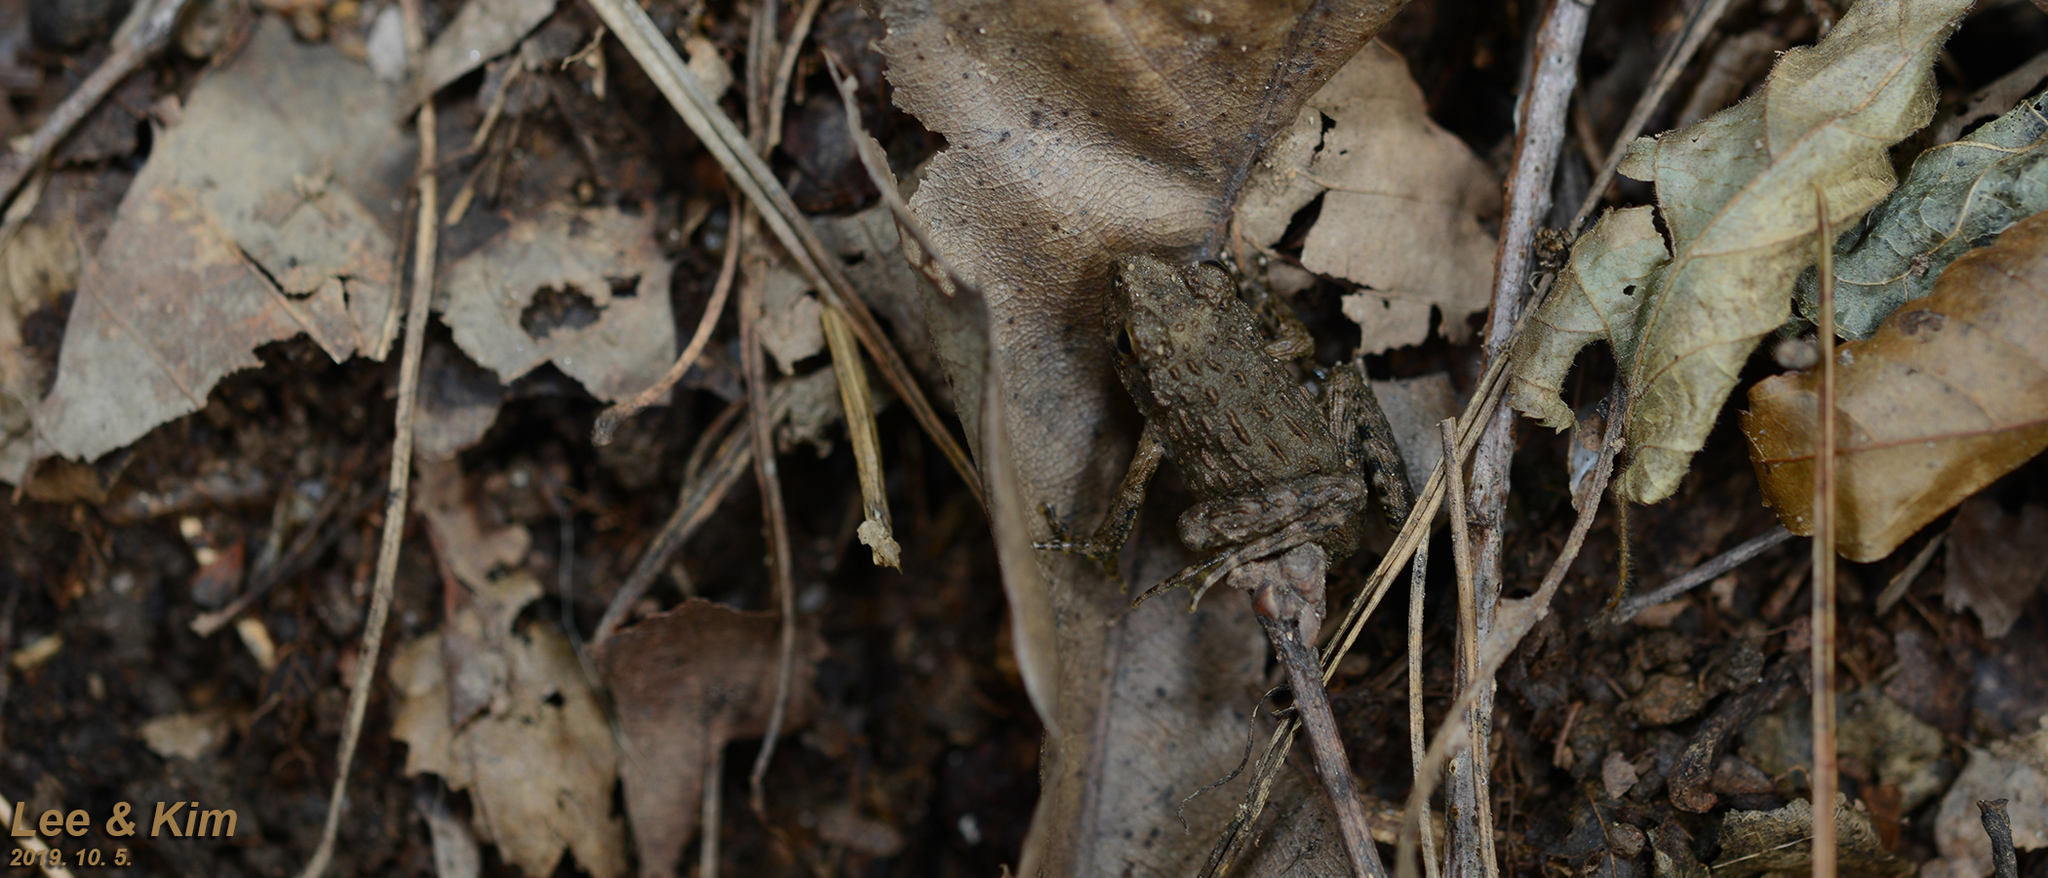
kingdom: Animalia
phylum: Chordata
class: Amphibia
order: Anura
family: Ranidae
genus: Glandirana
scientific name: Glandirana emeljanovi
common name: Northeast china rough-skinned frog
